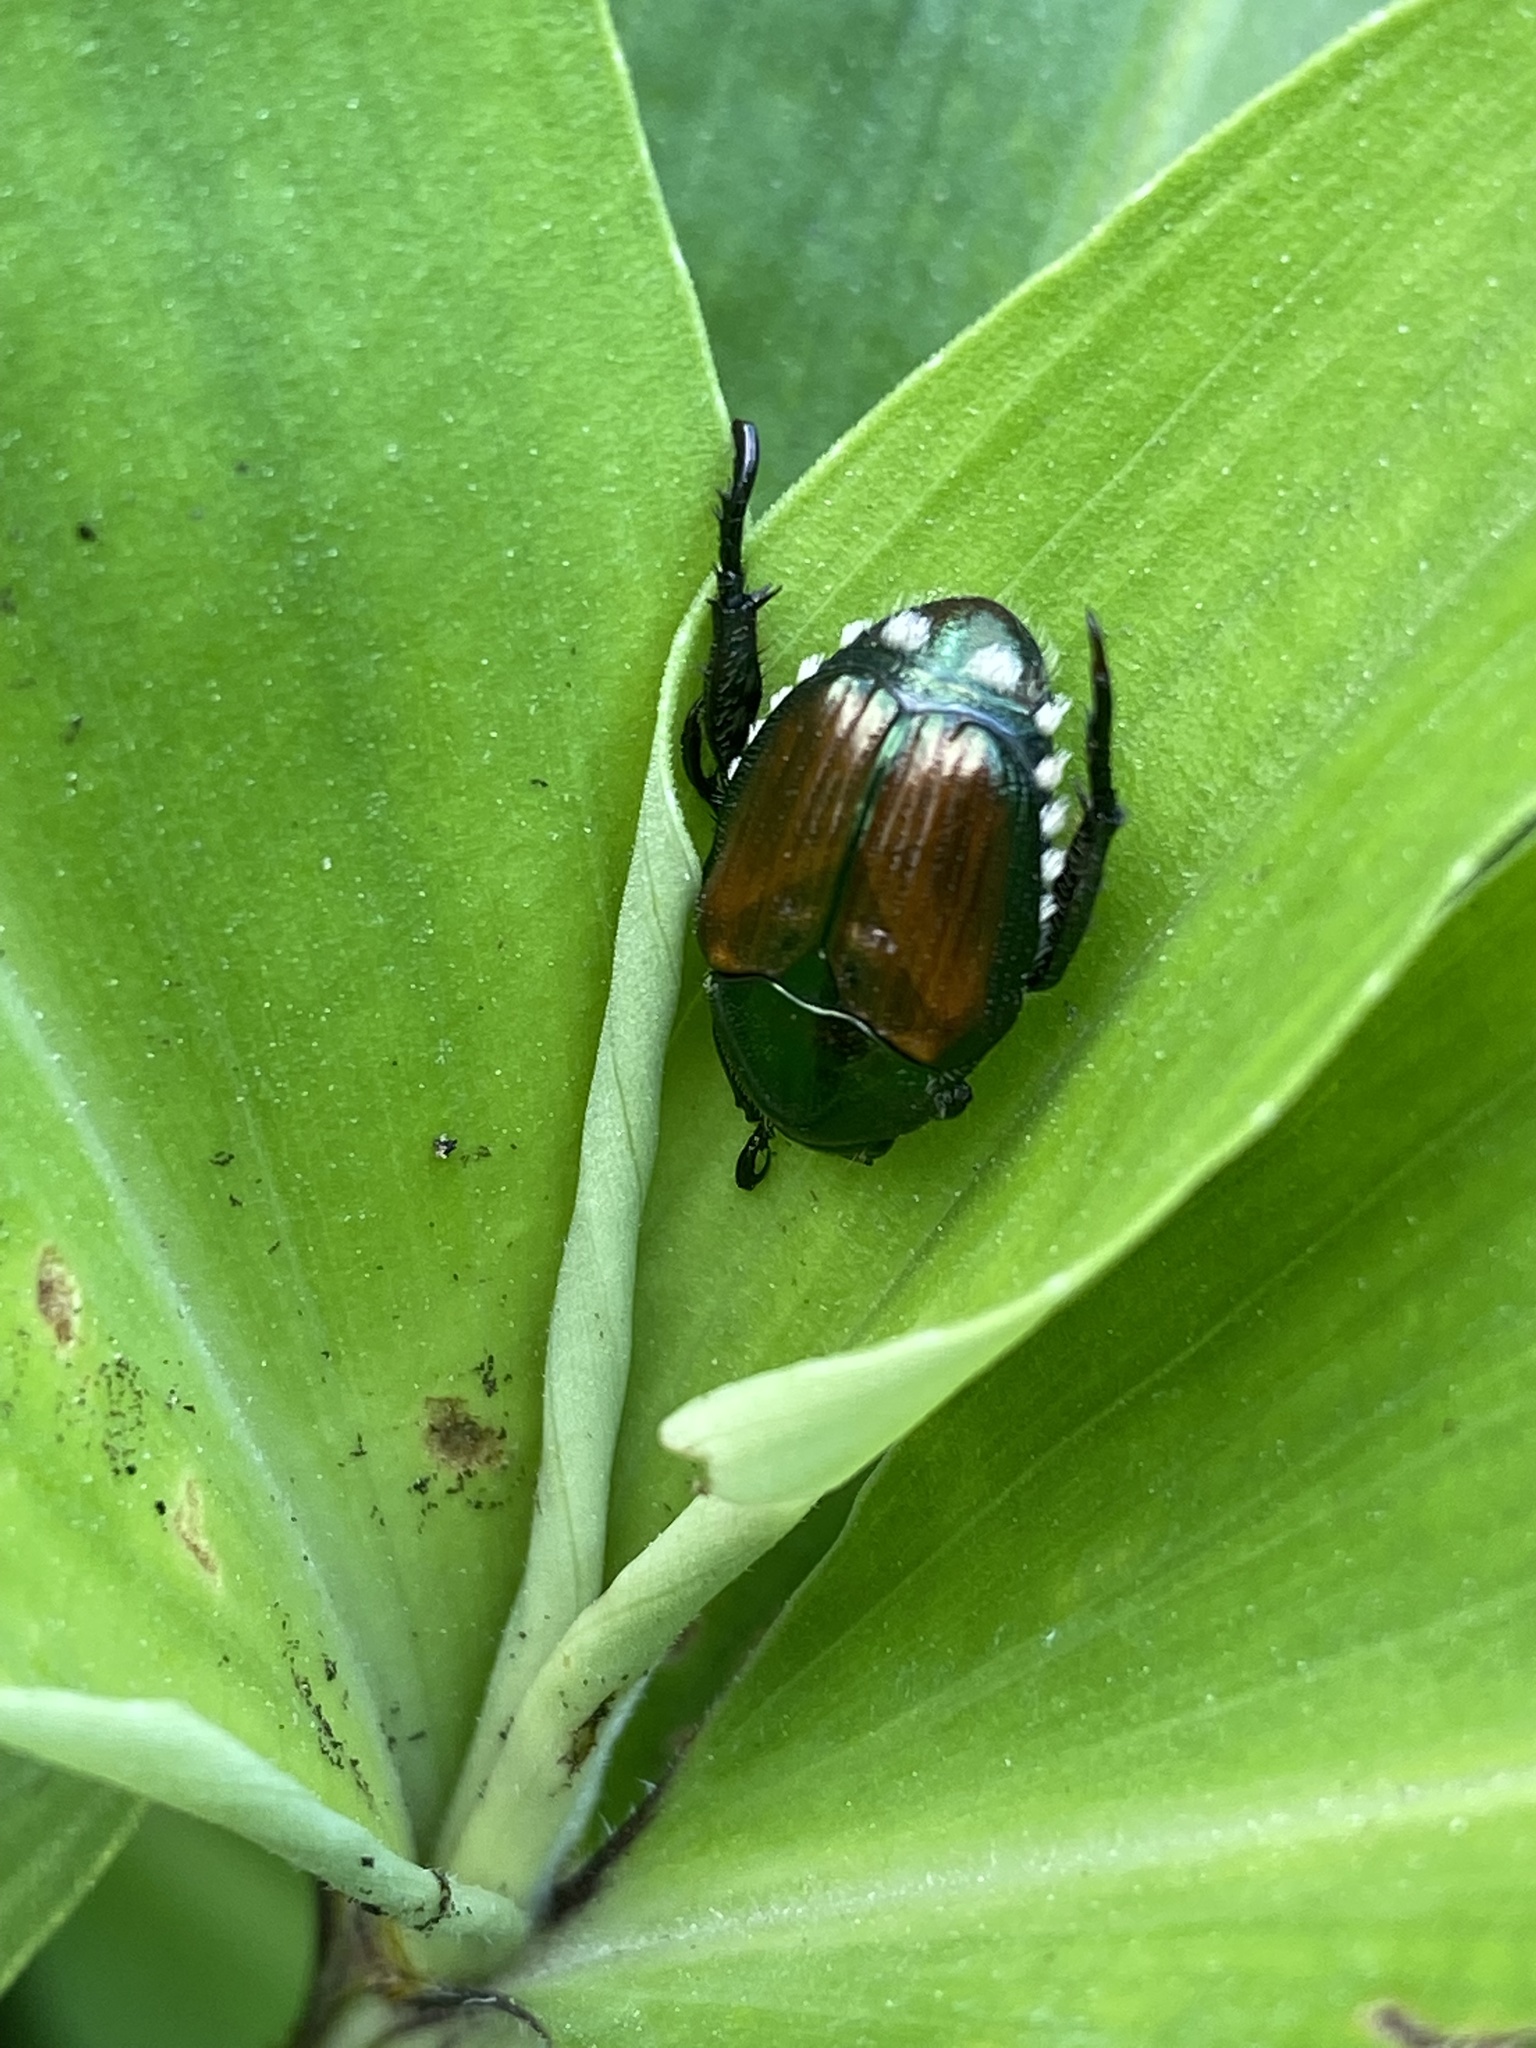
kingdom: Animalia
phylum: Arthropoda
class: Insecta
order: Coleoptera
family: Scarabaeidae
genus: Popillia
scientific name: Popillia japonica
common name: Japanese beetle
